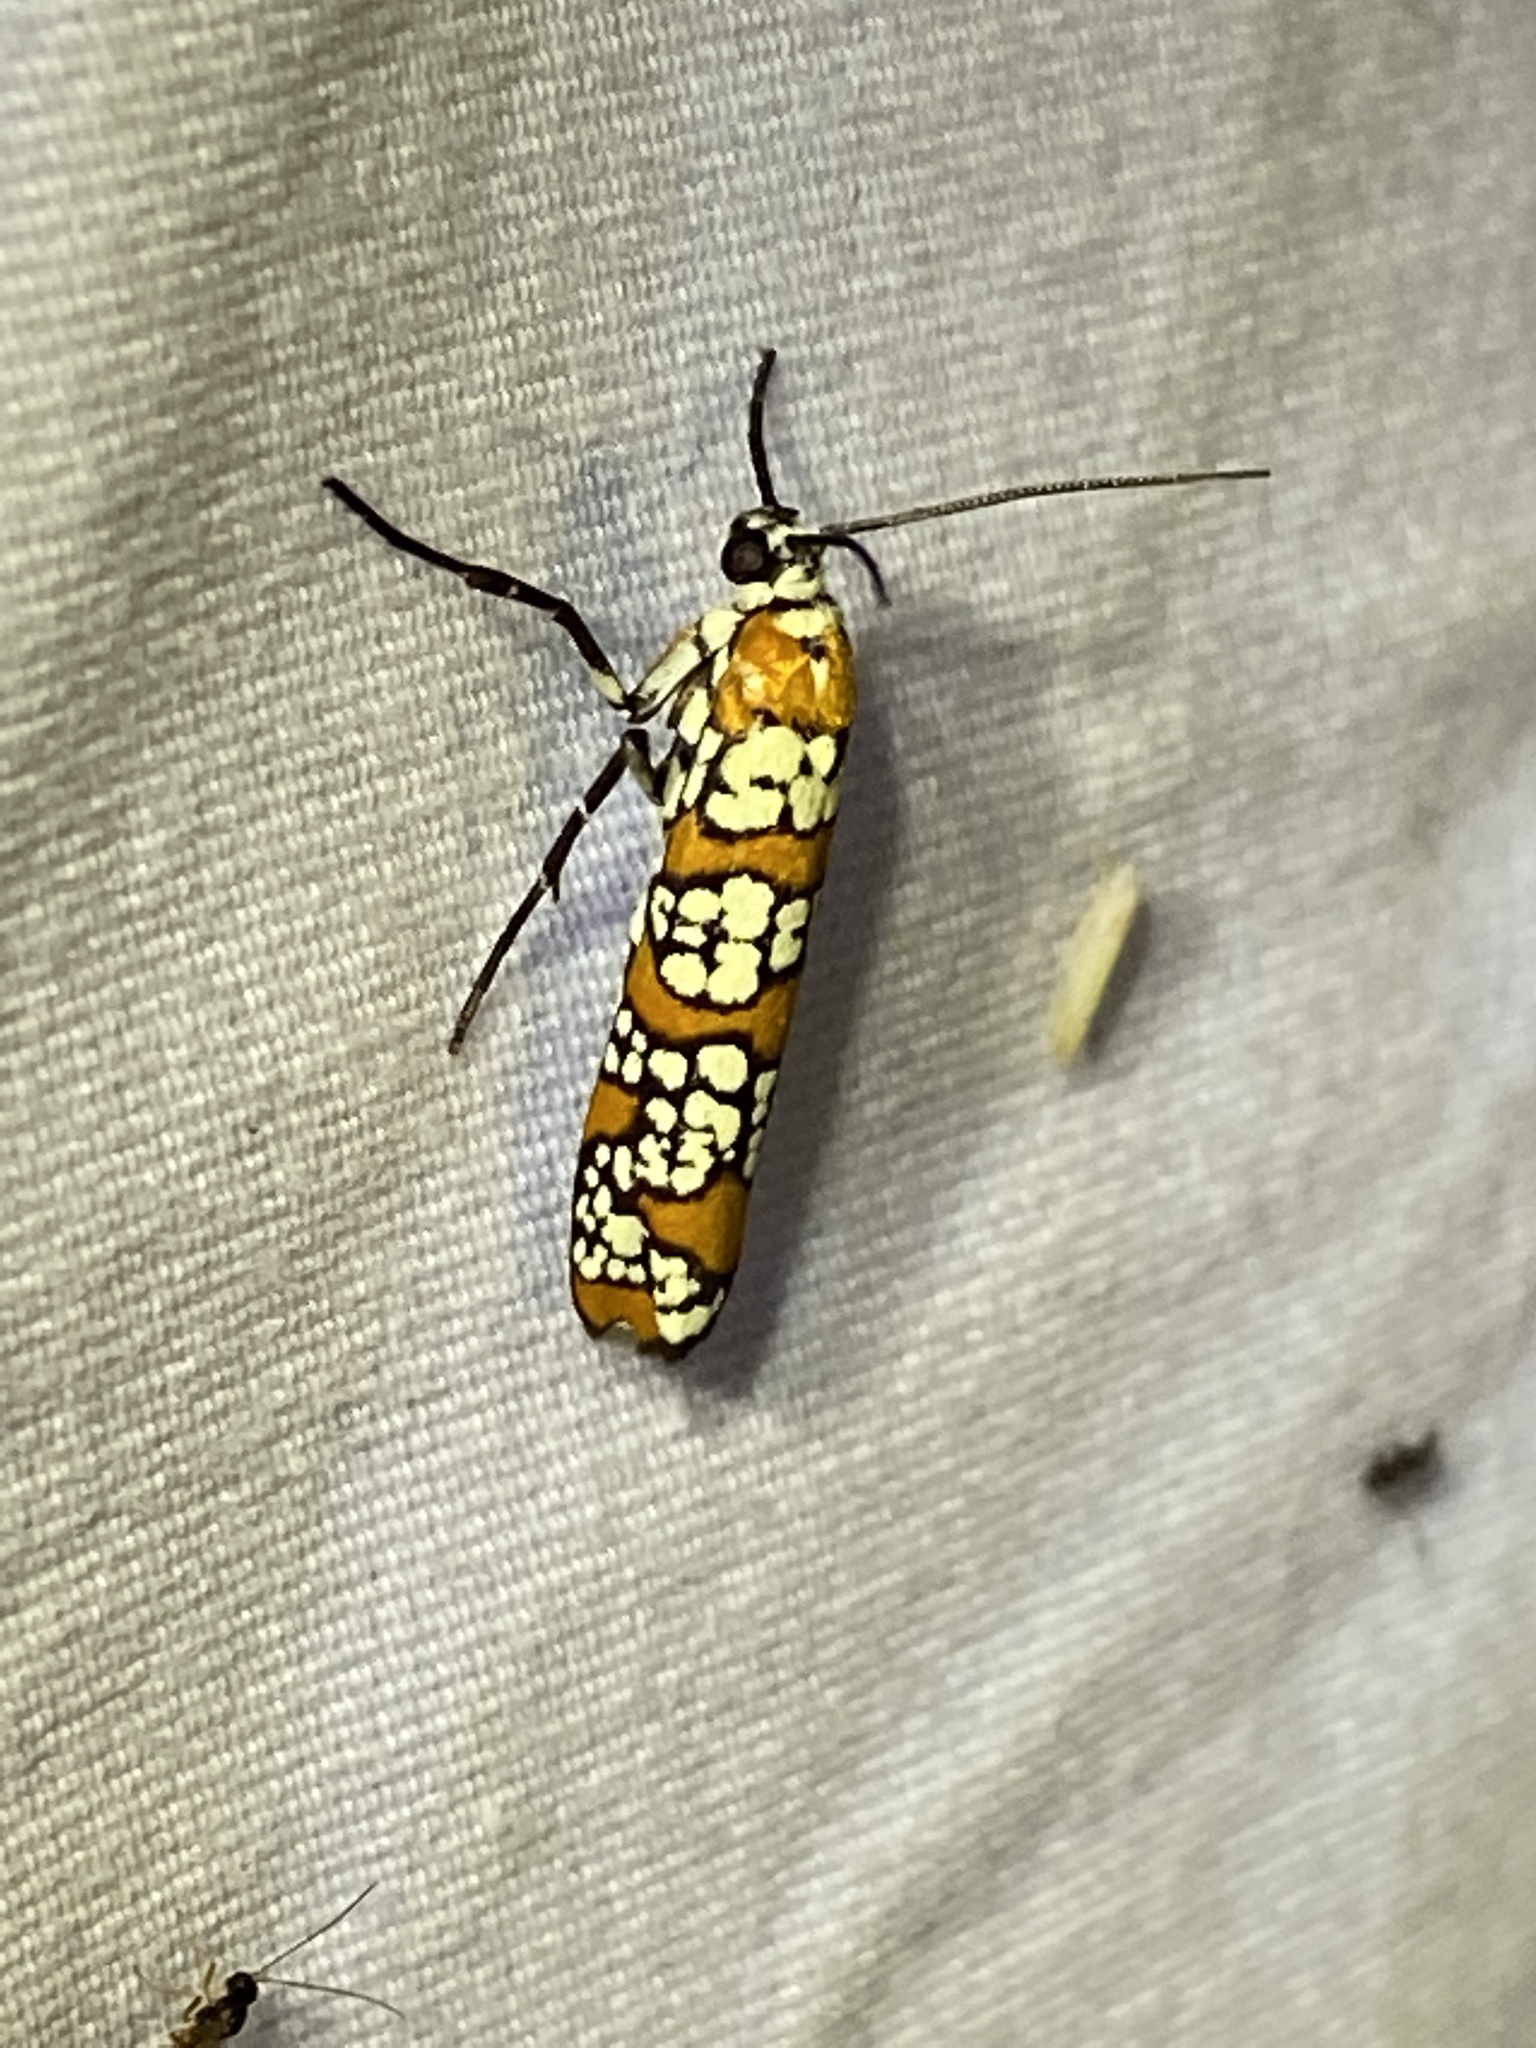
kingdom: Animalia
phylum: Arthropoda
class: Insecta
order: Lepidoptera
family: Attevidae
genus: Atteva
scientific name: Atteva punctella
